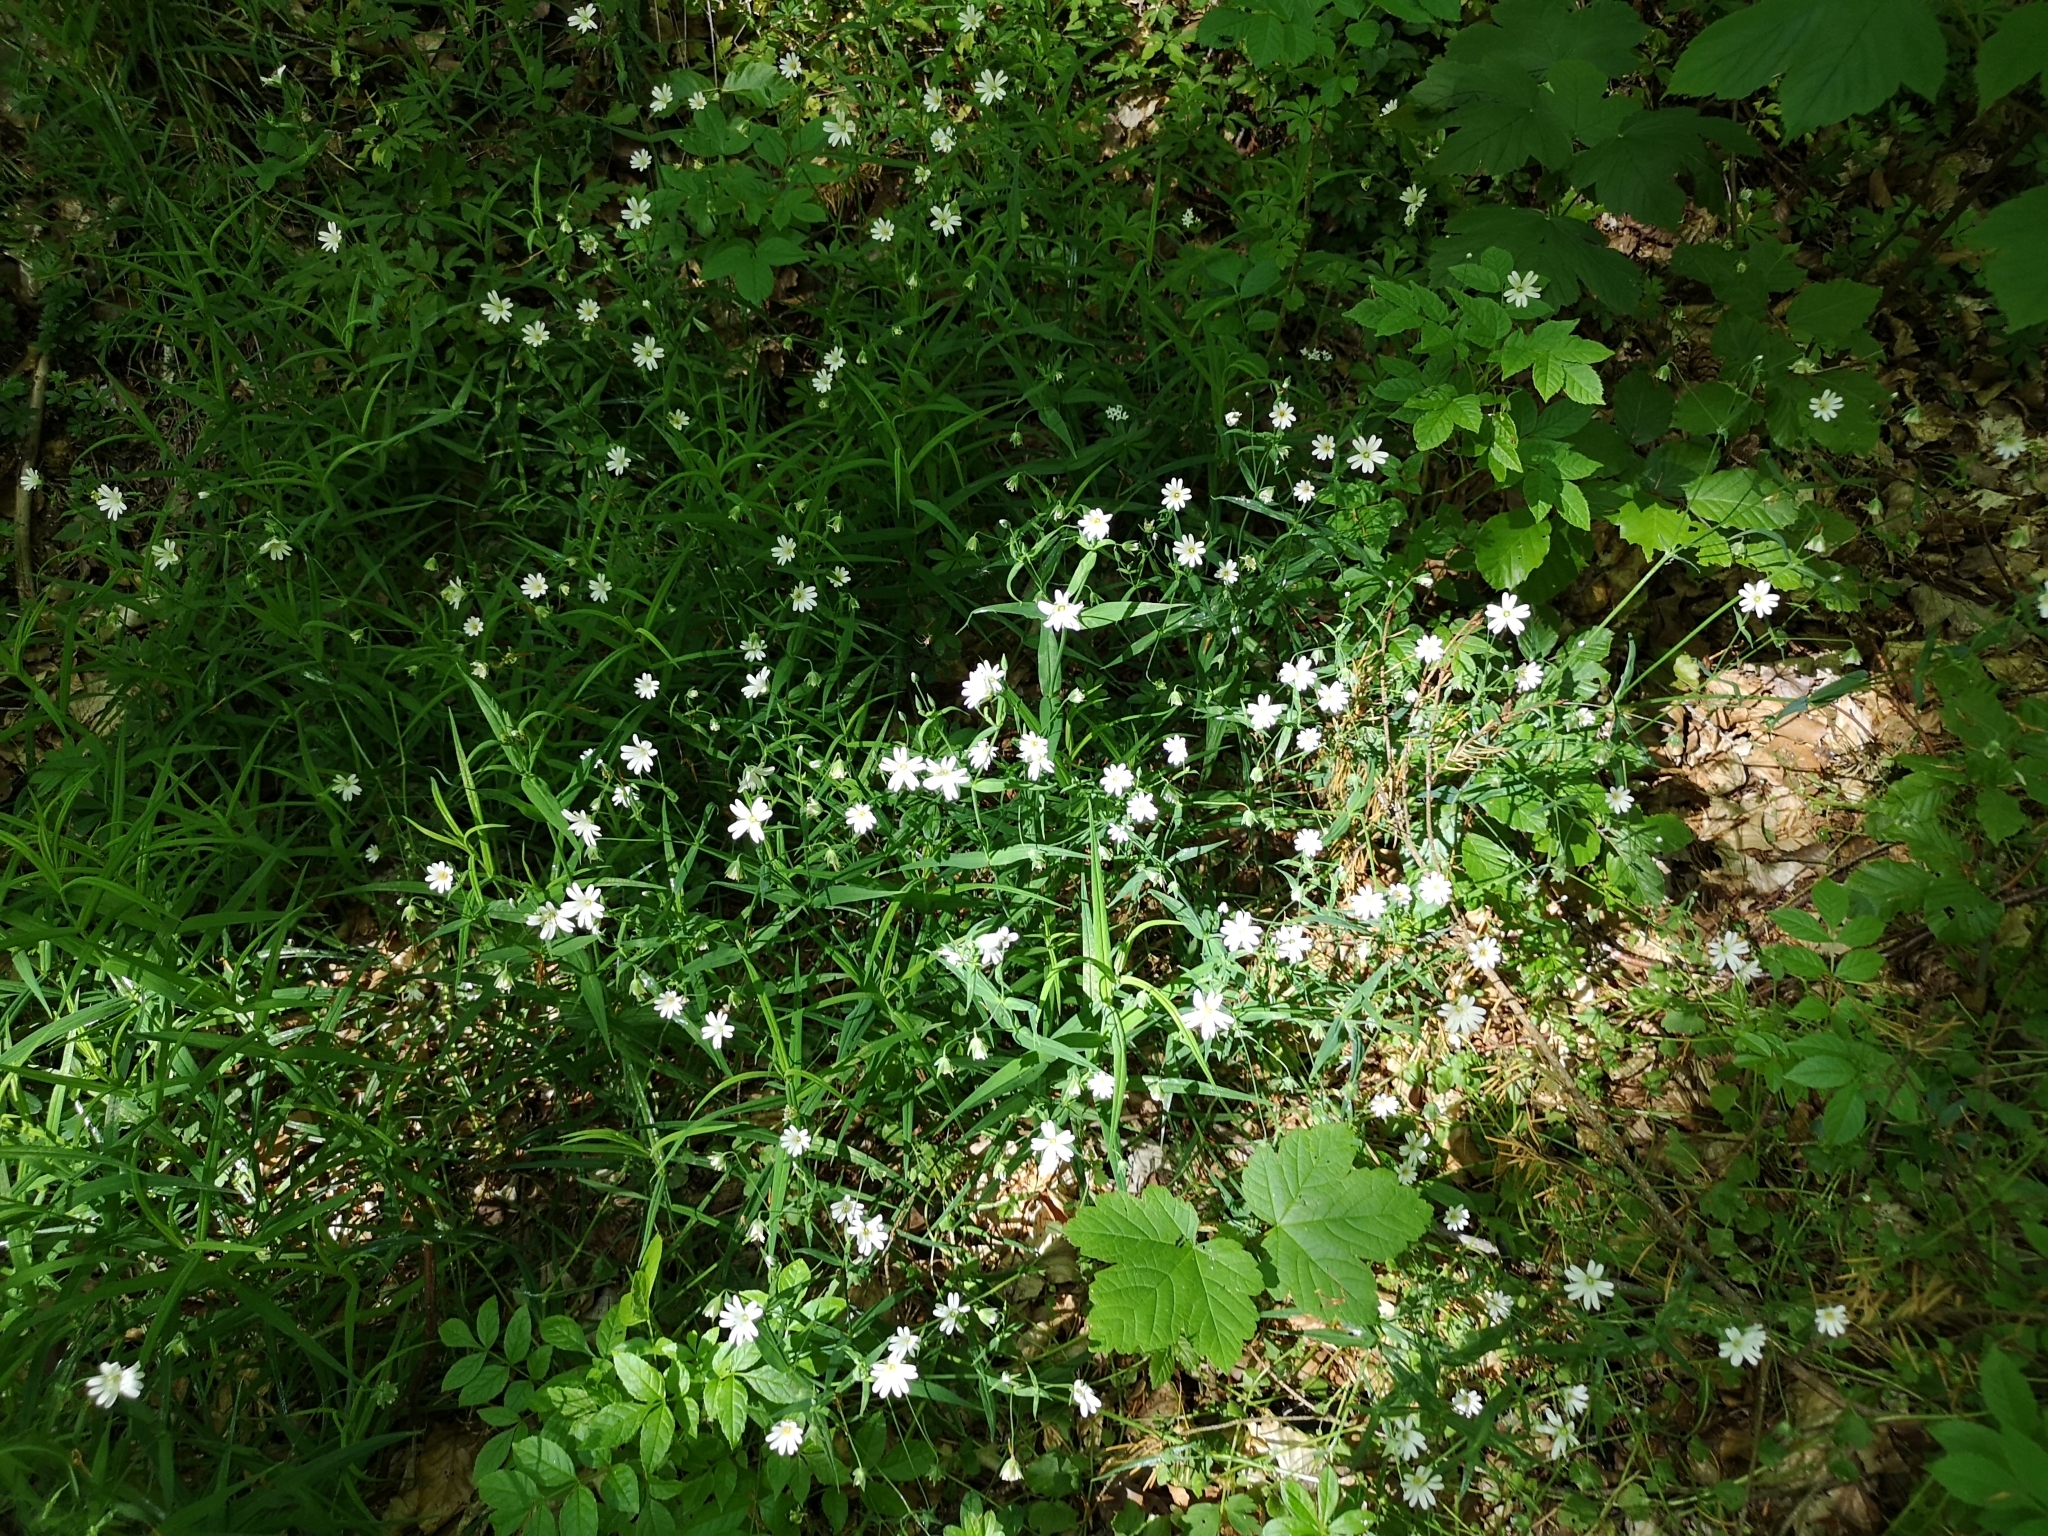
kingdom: Plantae
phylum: Tracheophyta
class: Magnoliopsida
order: Caryophyllales
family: Caryophyllaceae
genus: Rabelera
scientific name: Rabelera holostea
